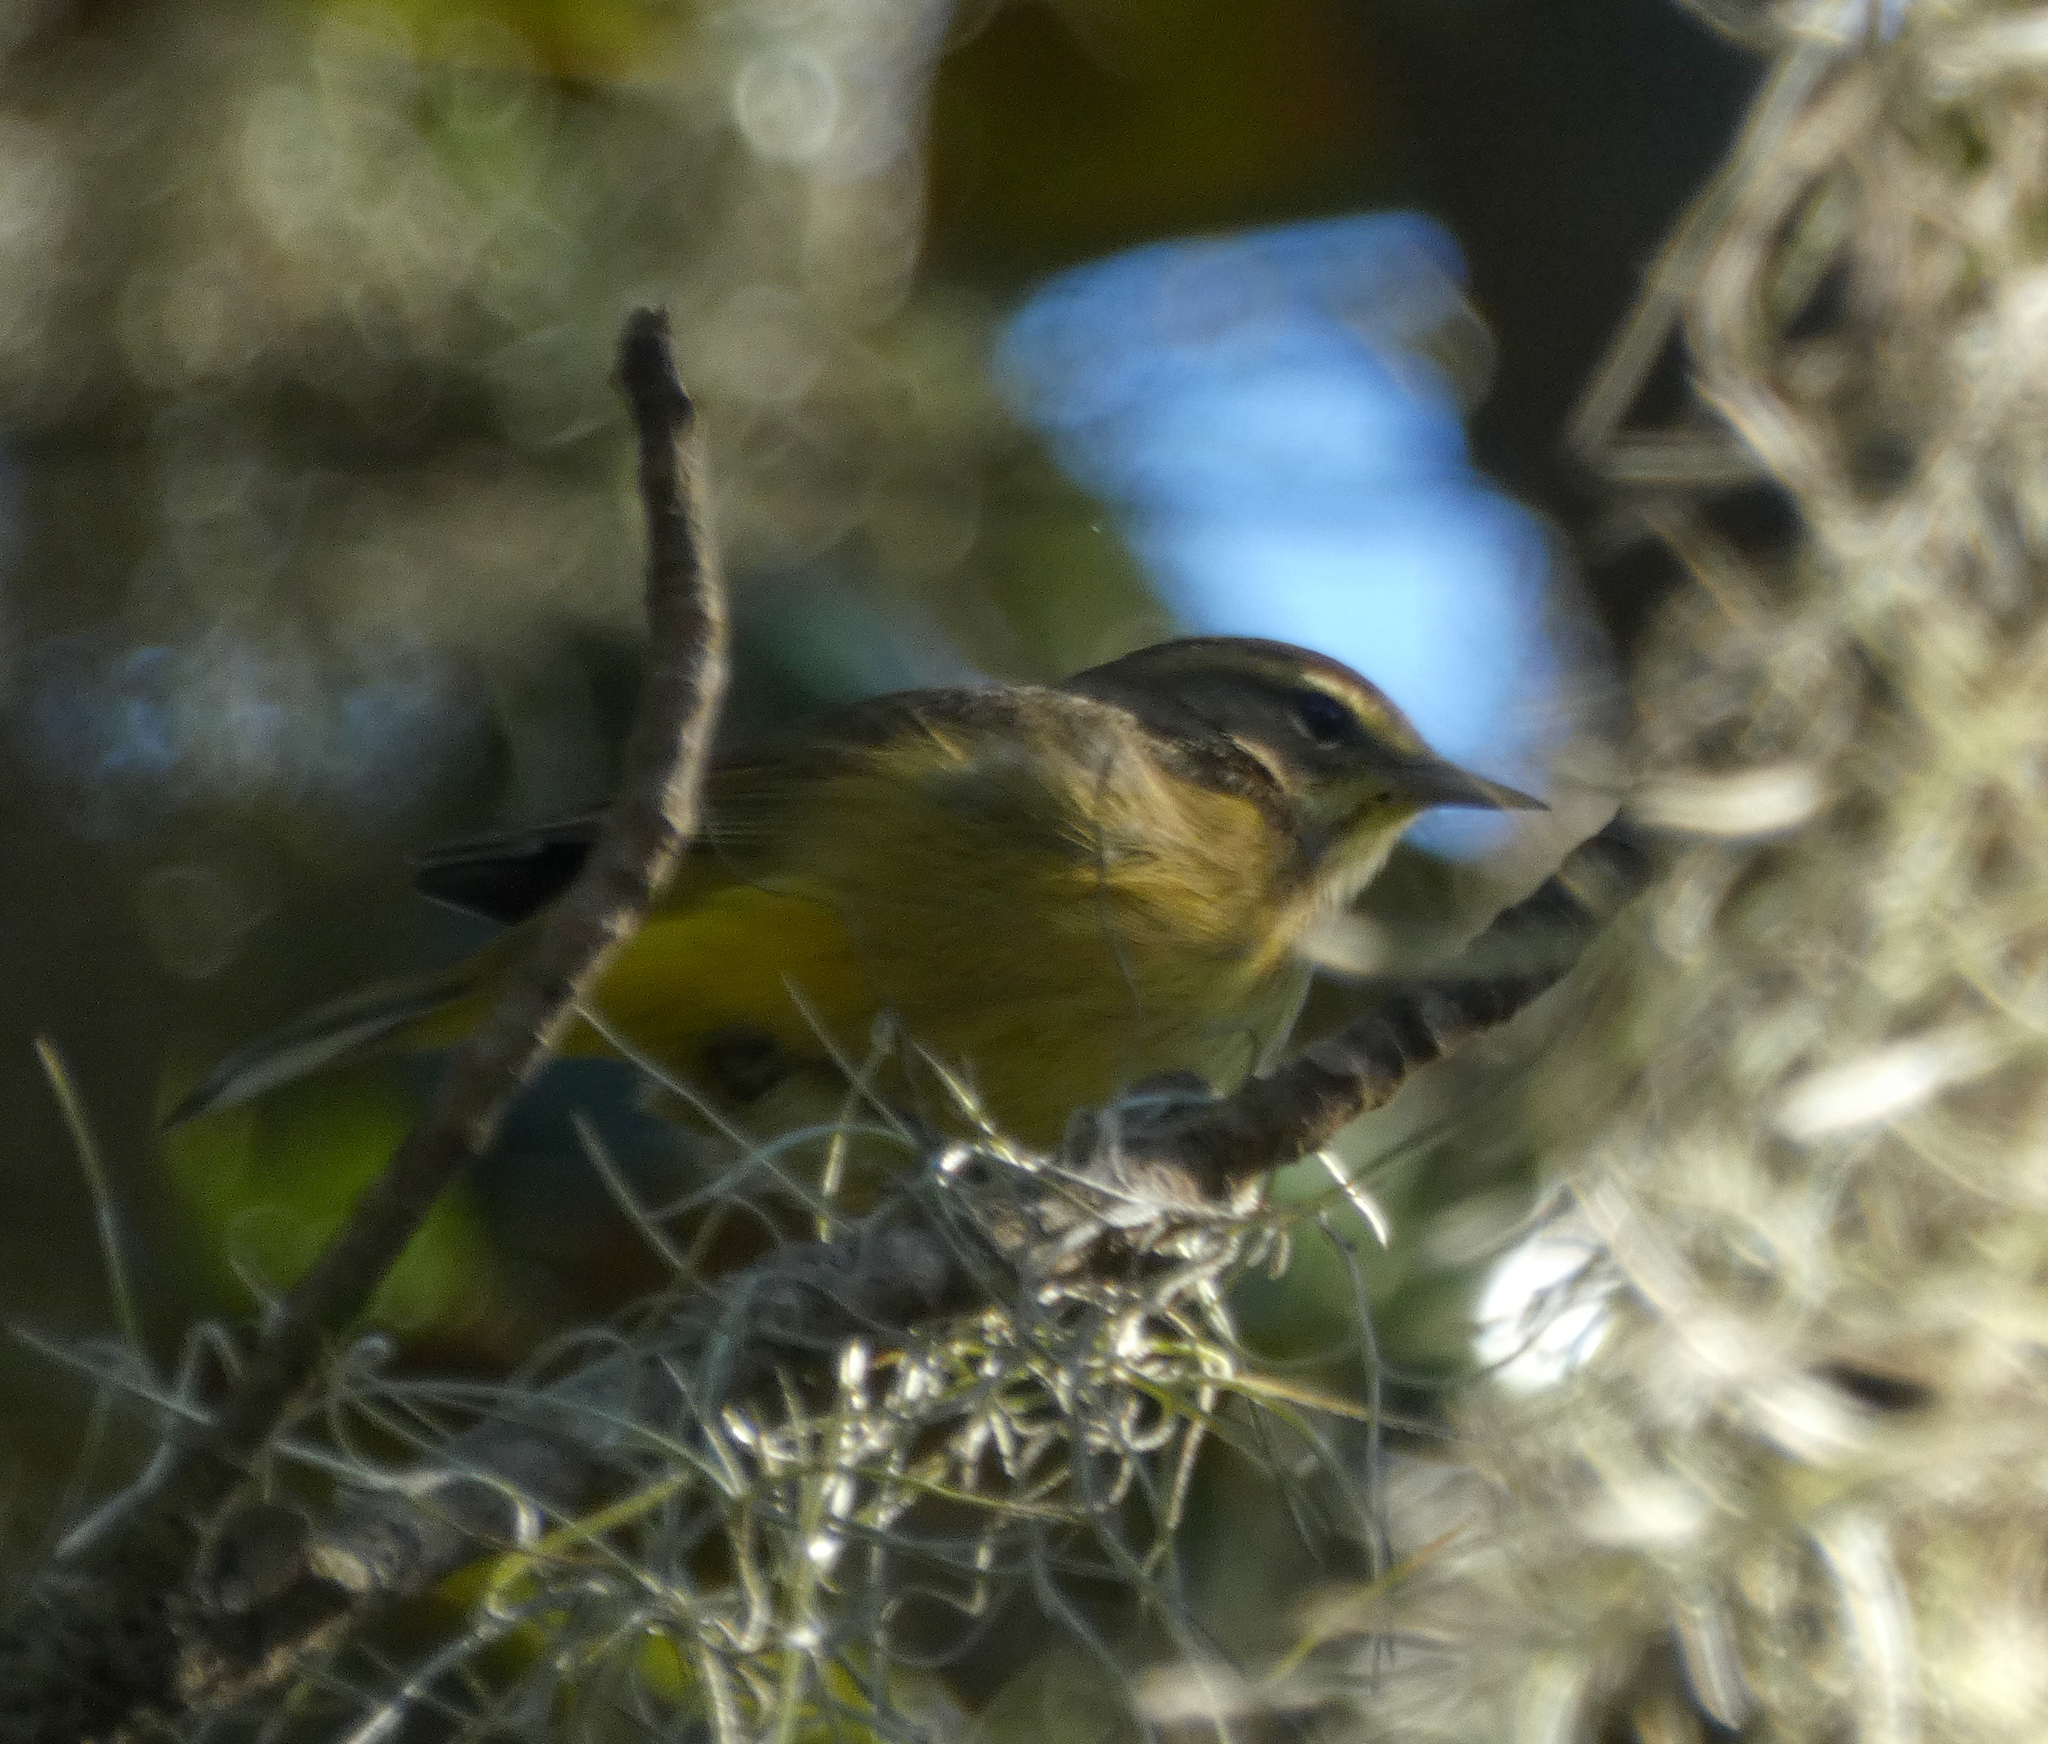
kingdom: Animalia
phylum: Chordata
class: Aves
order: Passeriformes
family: Parulidae
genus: Setophaga
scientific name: Setophaga palmarum
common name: Palm warbler
